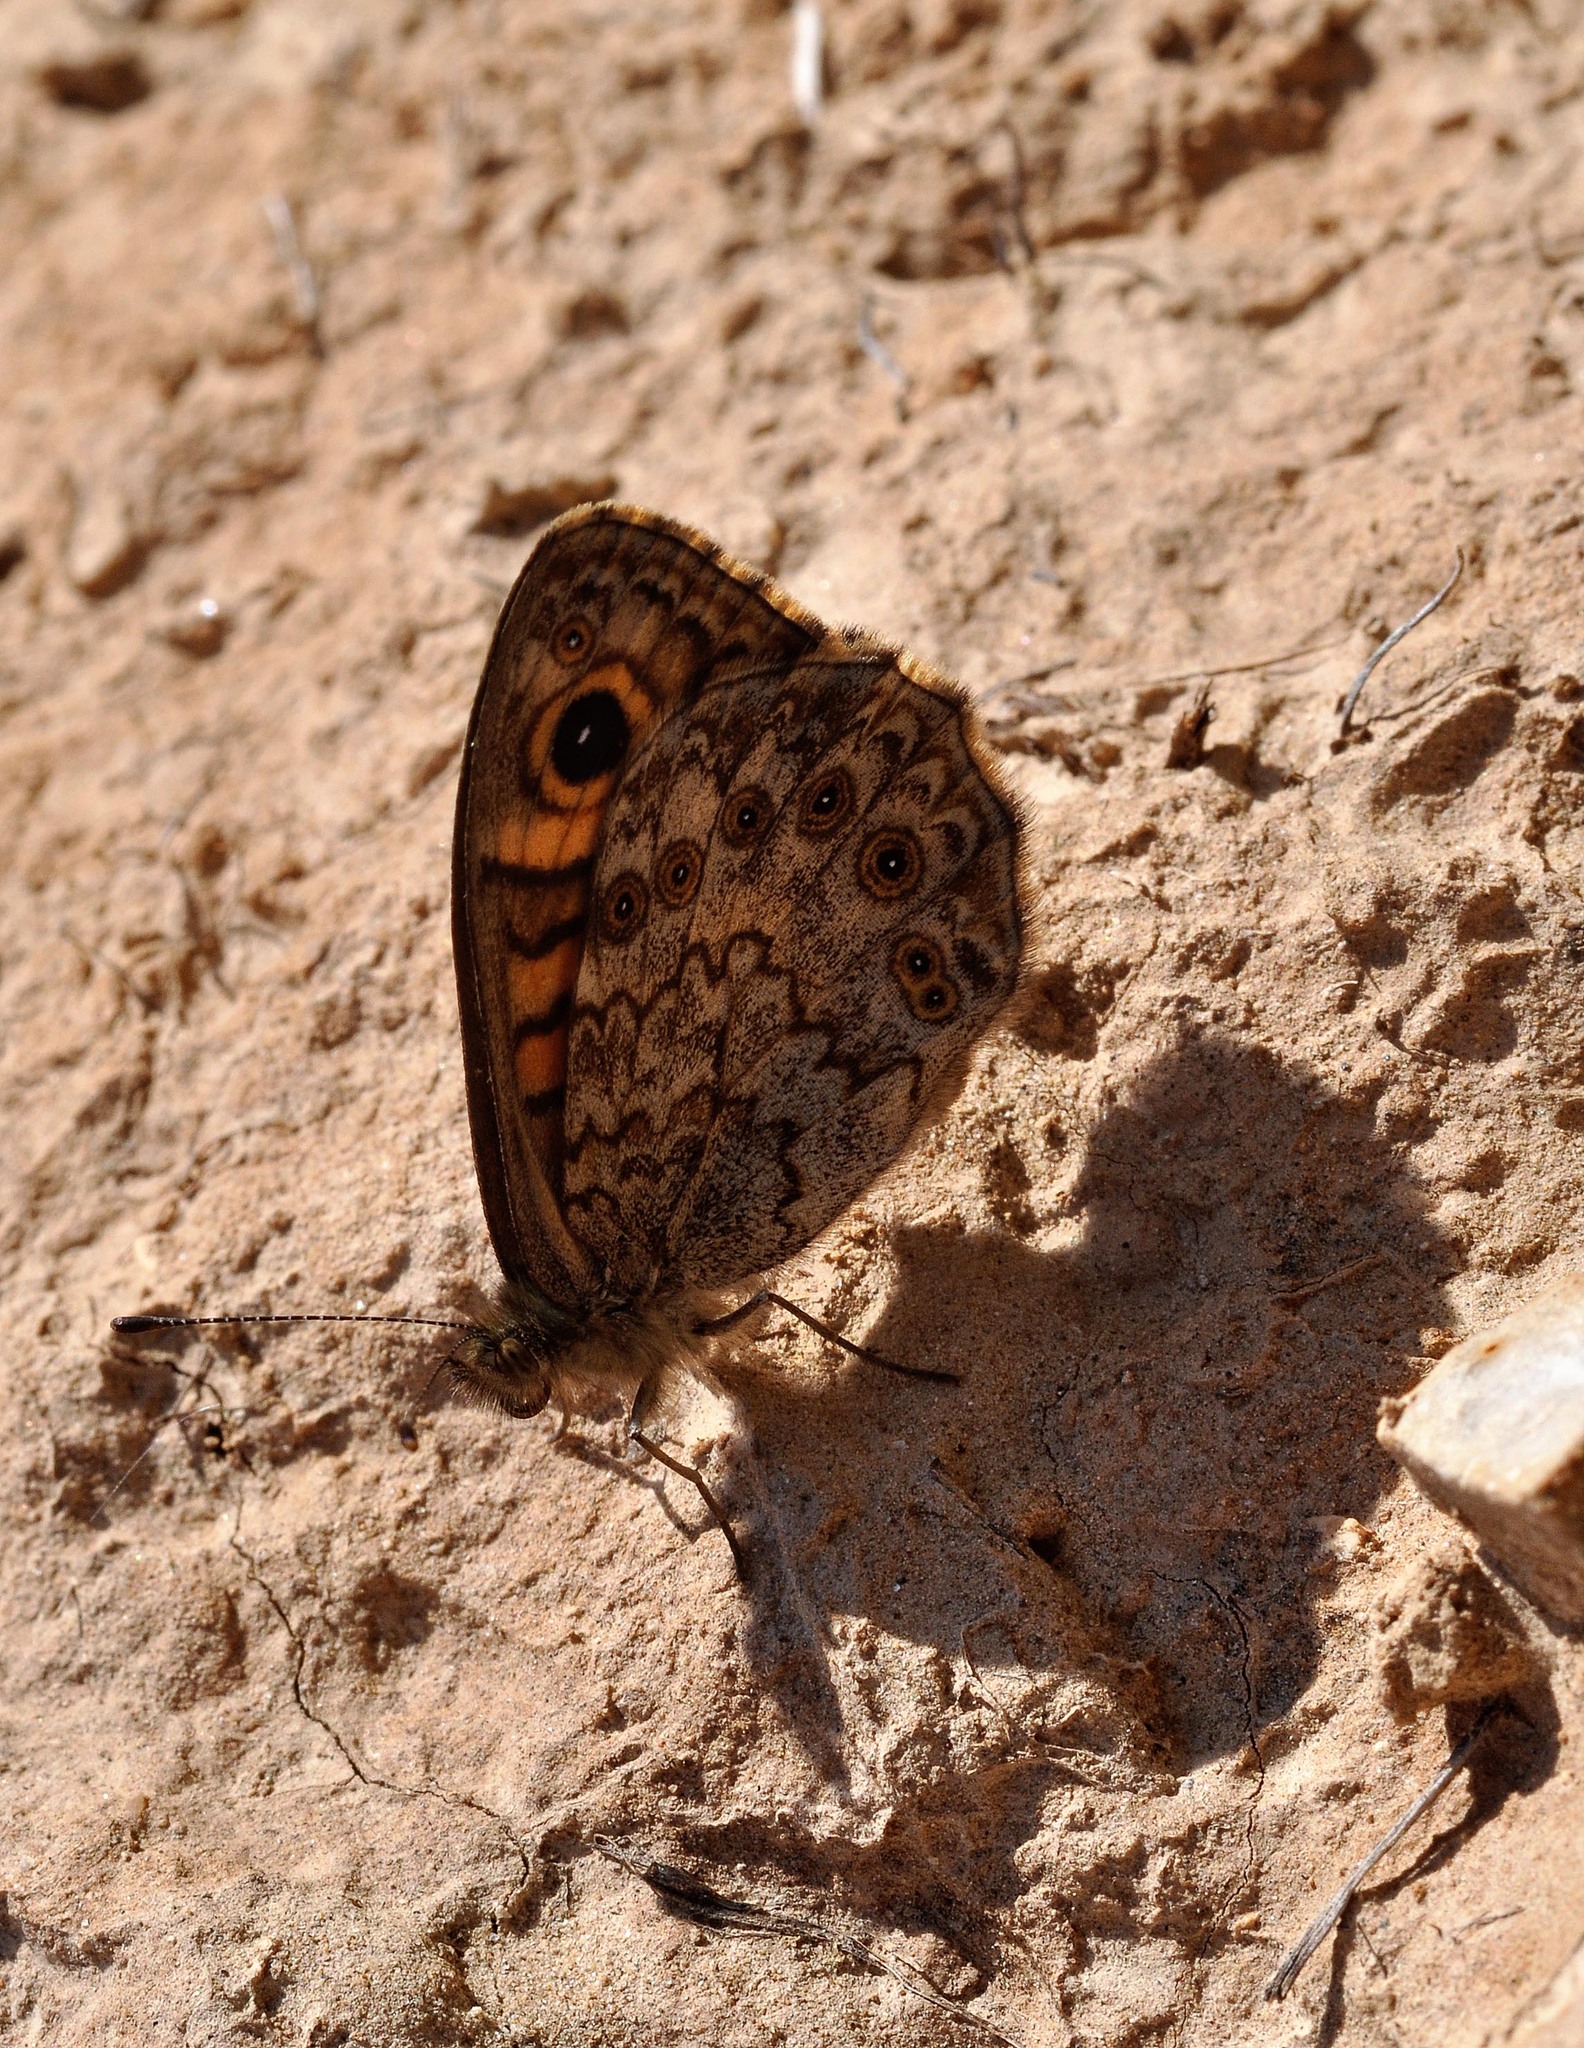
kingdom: Animalia
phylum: Arthropoda
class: Insecta
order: Lepidoptera
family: Nymphalidae
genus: Pararge
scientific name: Pararge Lasiommata megera
